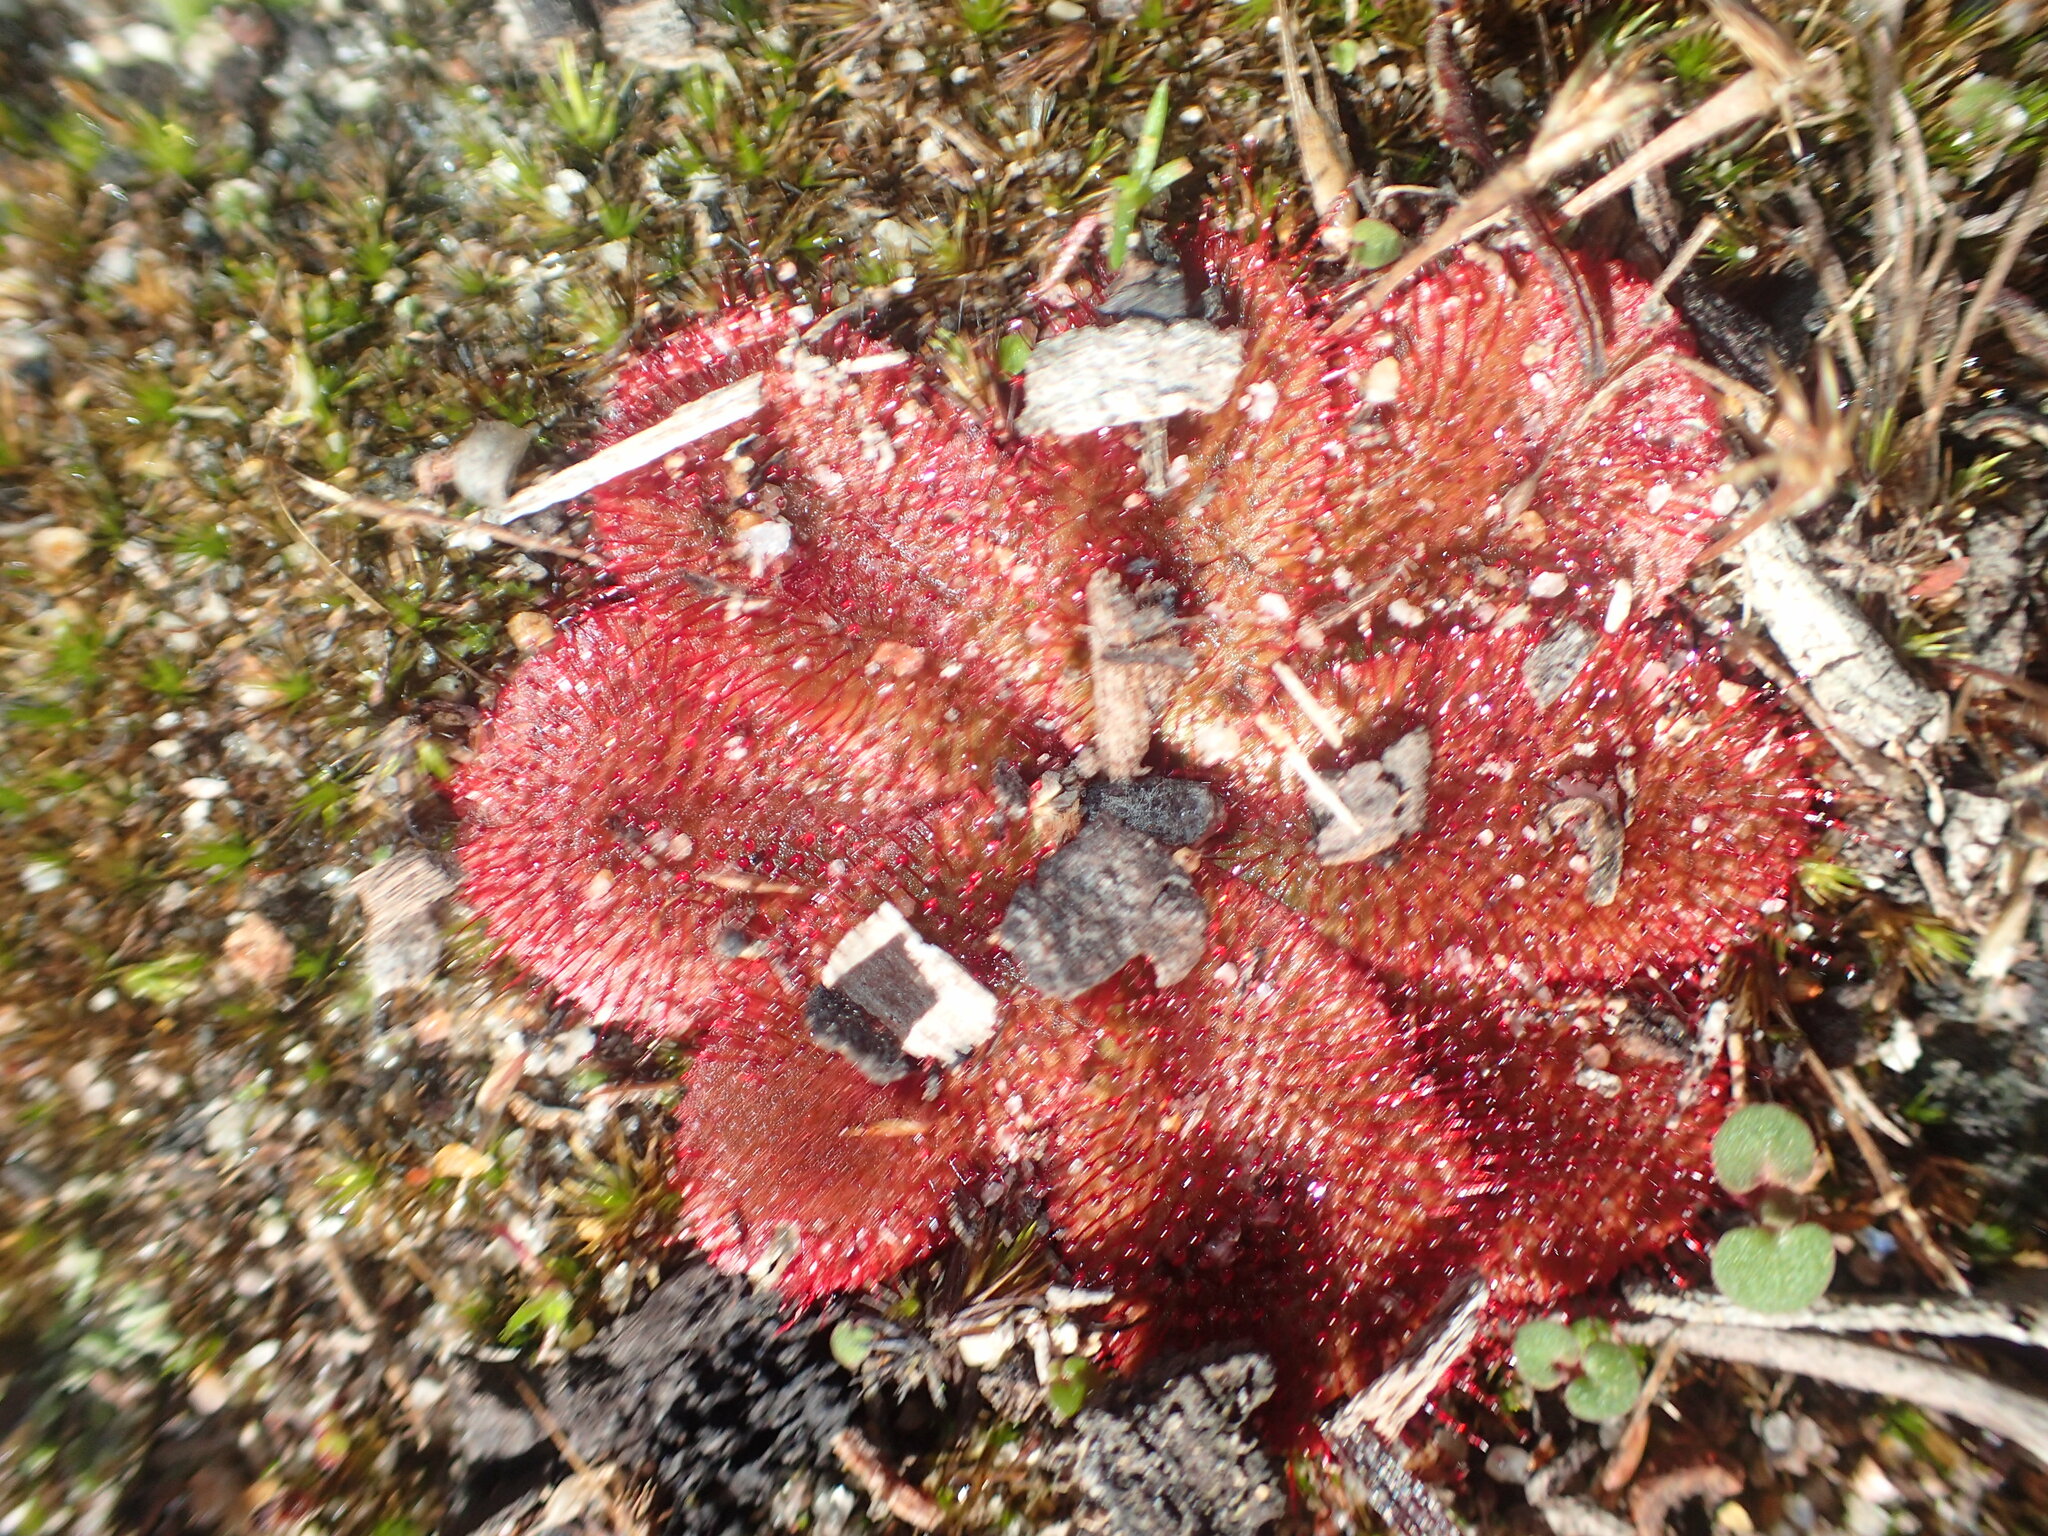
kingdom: Plantae
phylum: Tracheophyta
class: Magnoliopsida
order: Caryophyllales
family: Droseraceae
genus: Drosera
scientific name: Drosera rosulata
